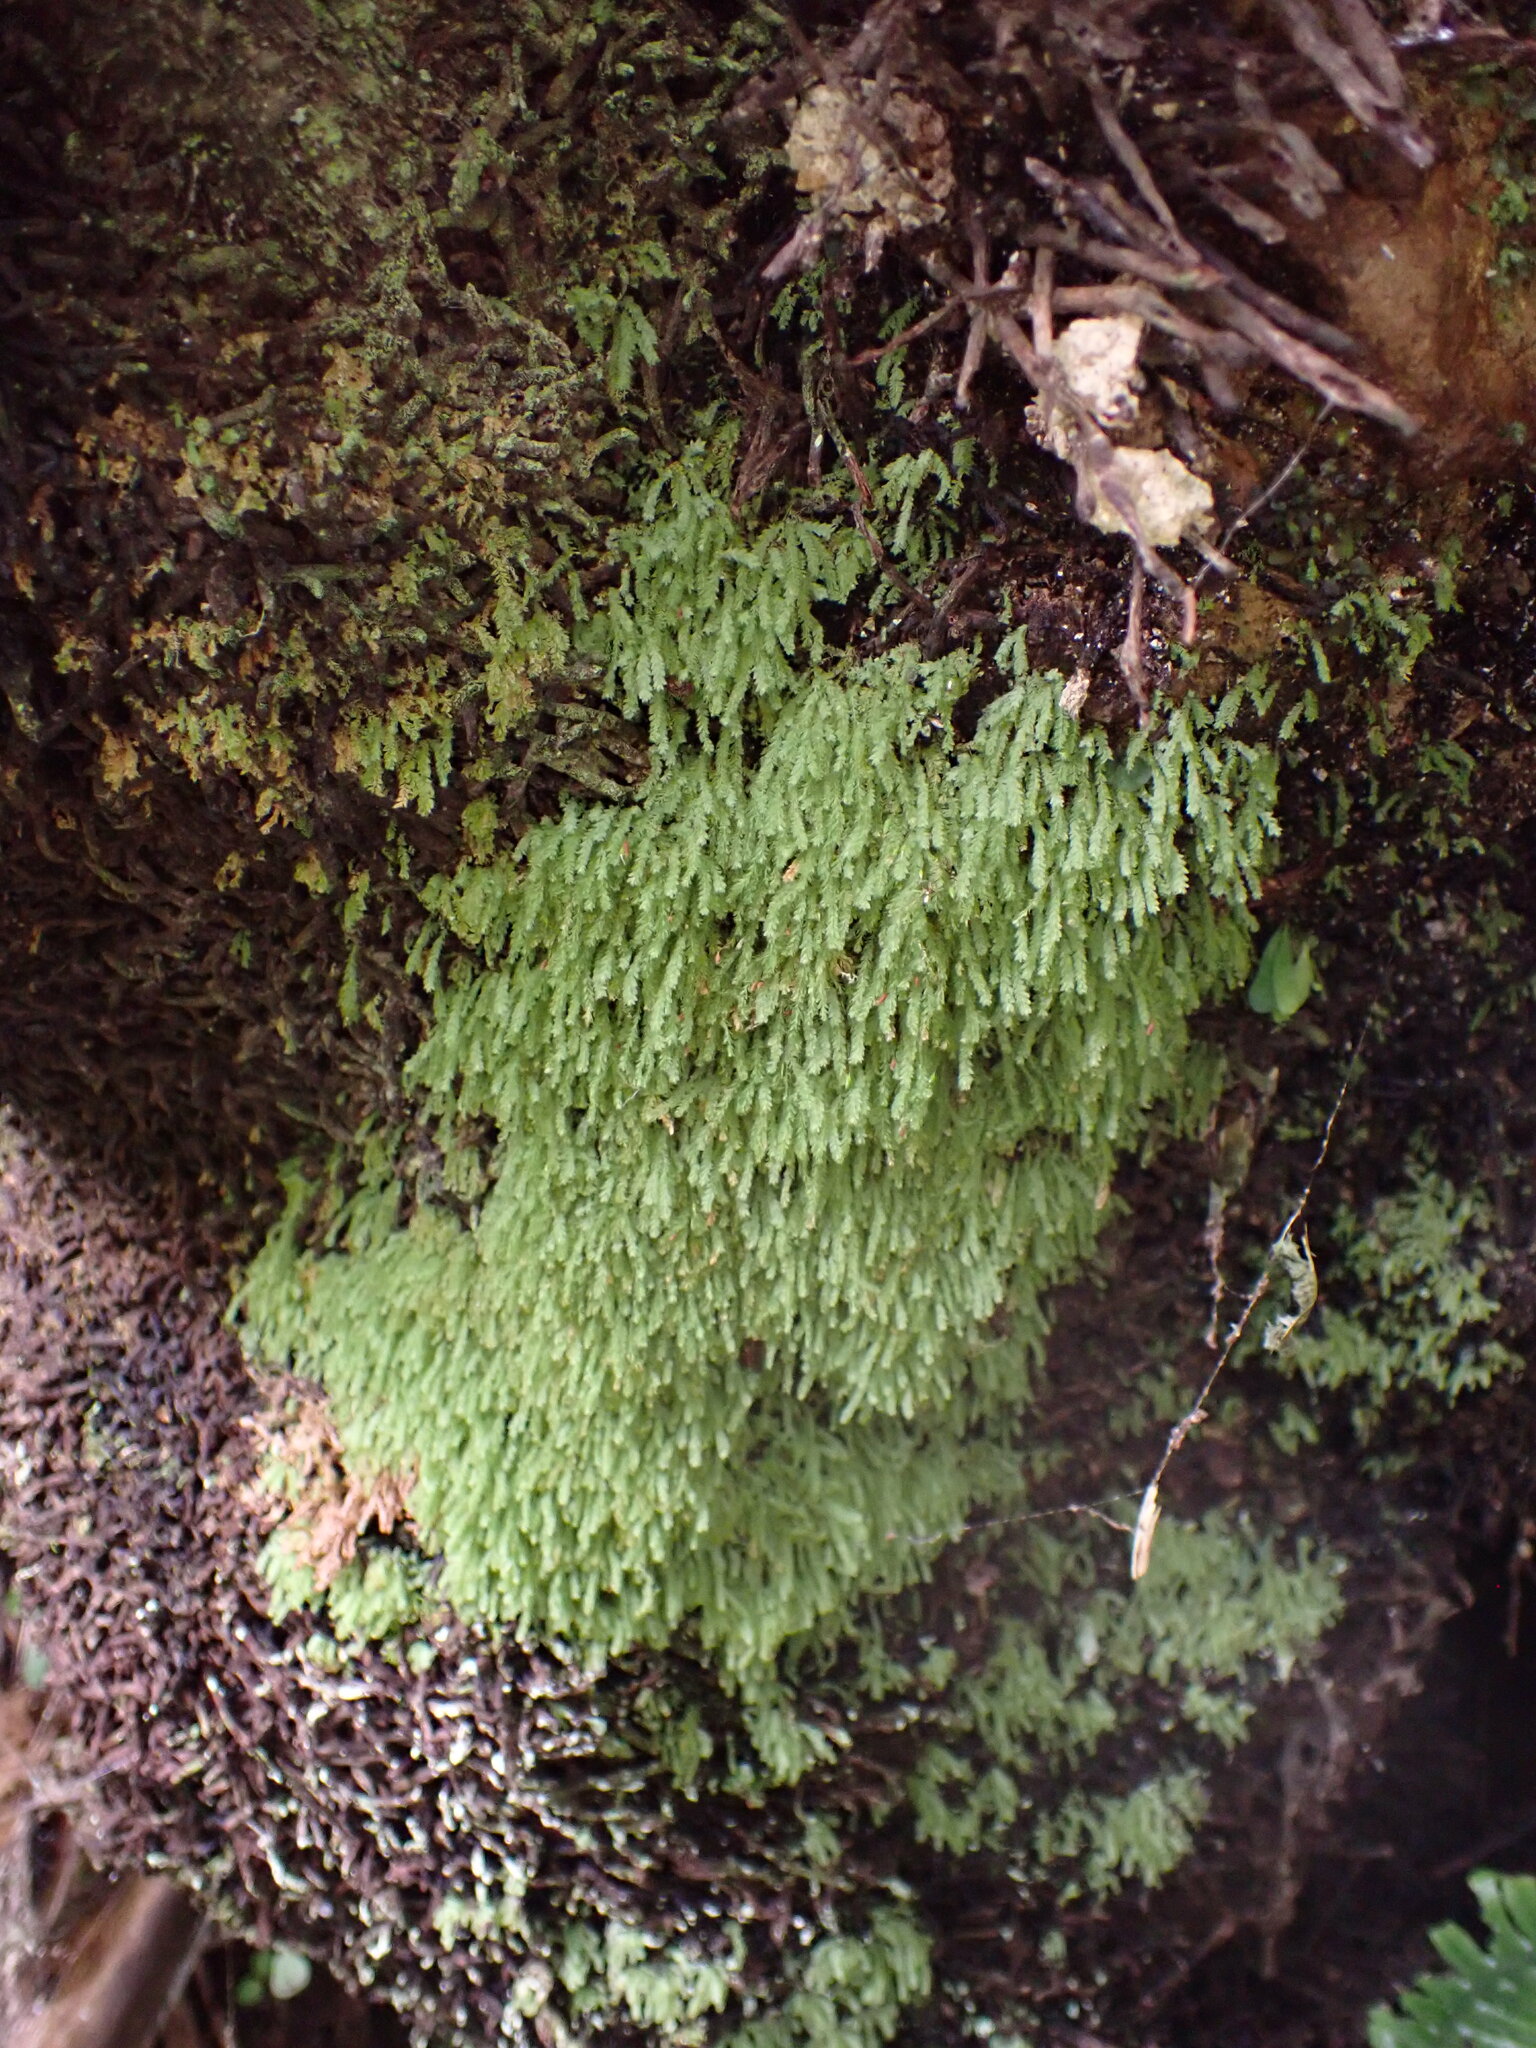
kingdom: Plantae
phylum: Bryophyta
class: Bryopsida
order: Orthodontiales
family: Orthodontiaceae
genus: Hymenodon
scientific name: Hymenodon pilifer
